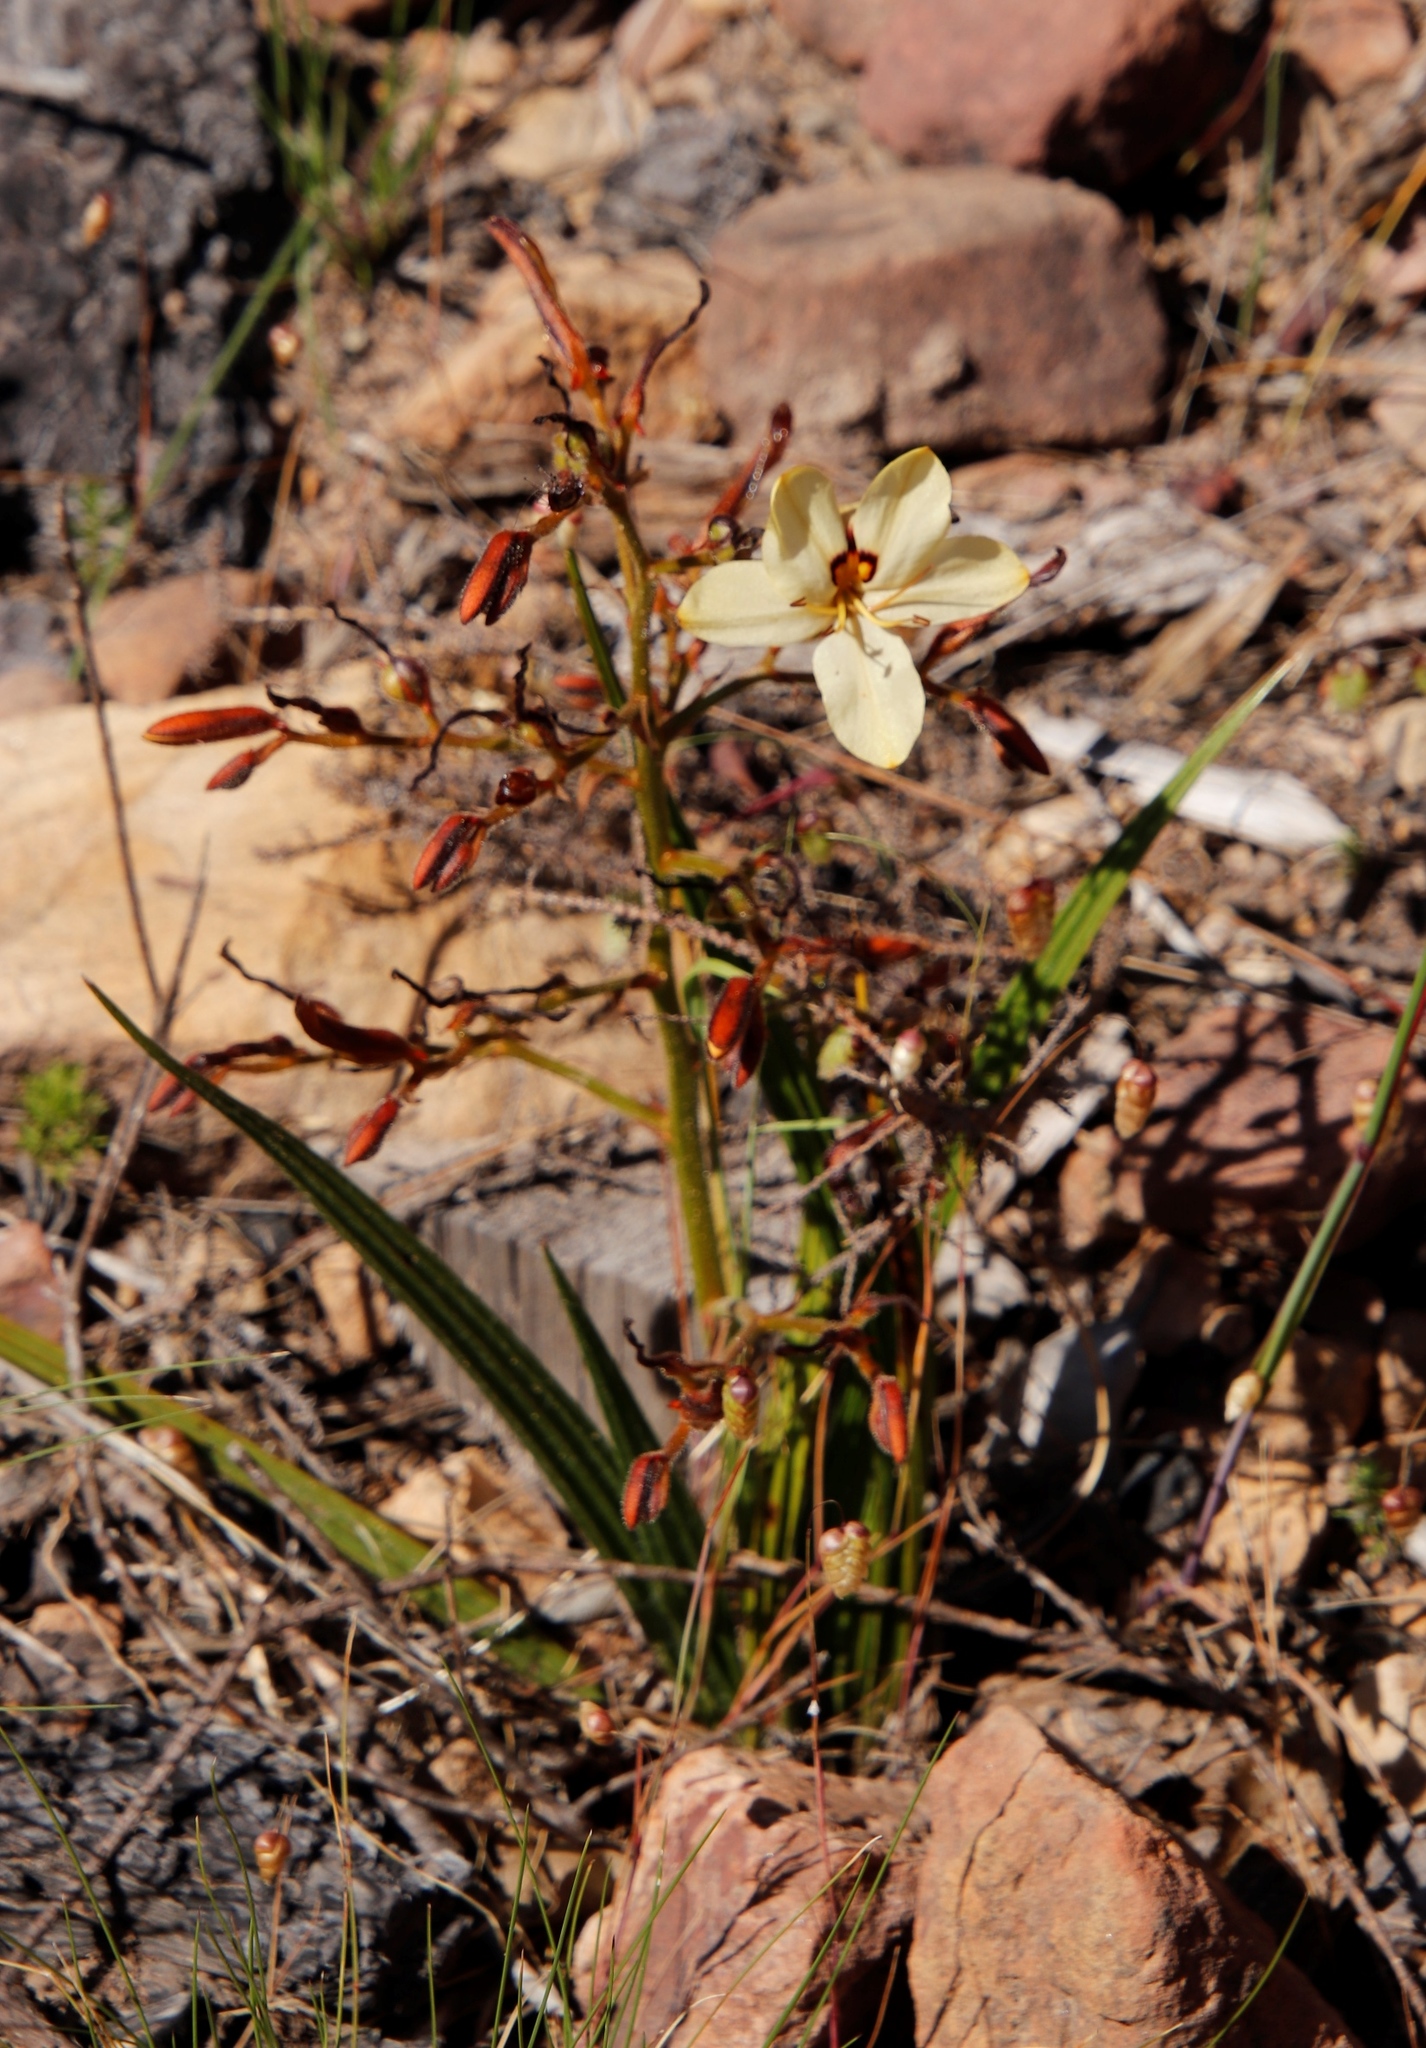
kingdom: Plantae
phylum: Tracheophyta
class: Liliopsida
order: Commelinales
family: Haemodoraceae
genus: Wachendorfia
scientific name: Wachendorfia paniculata
